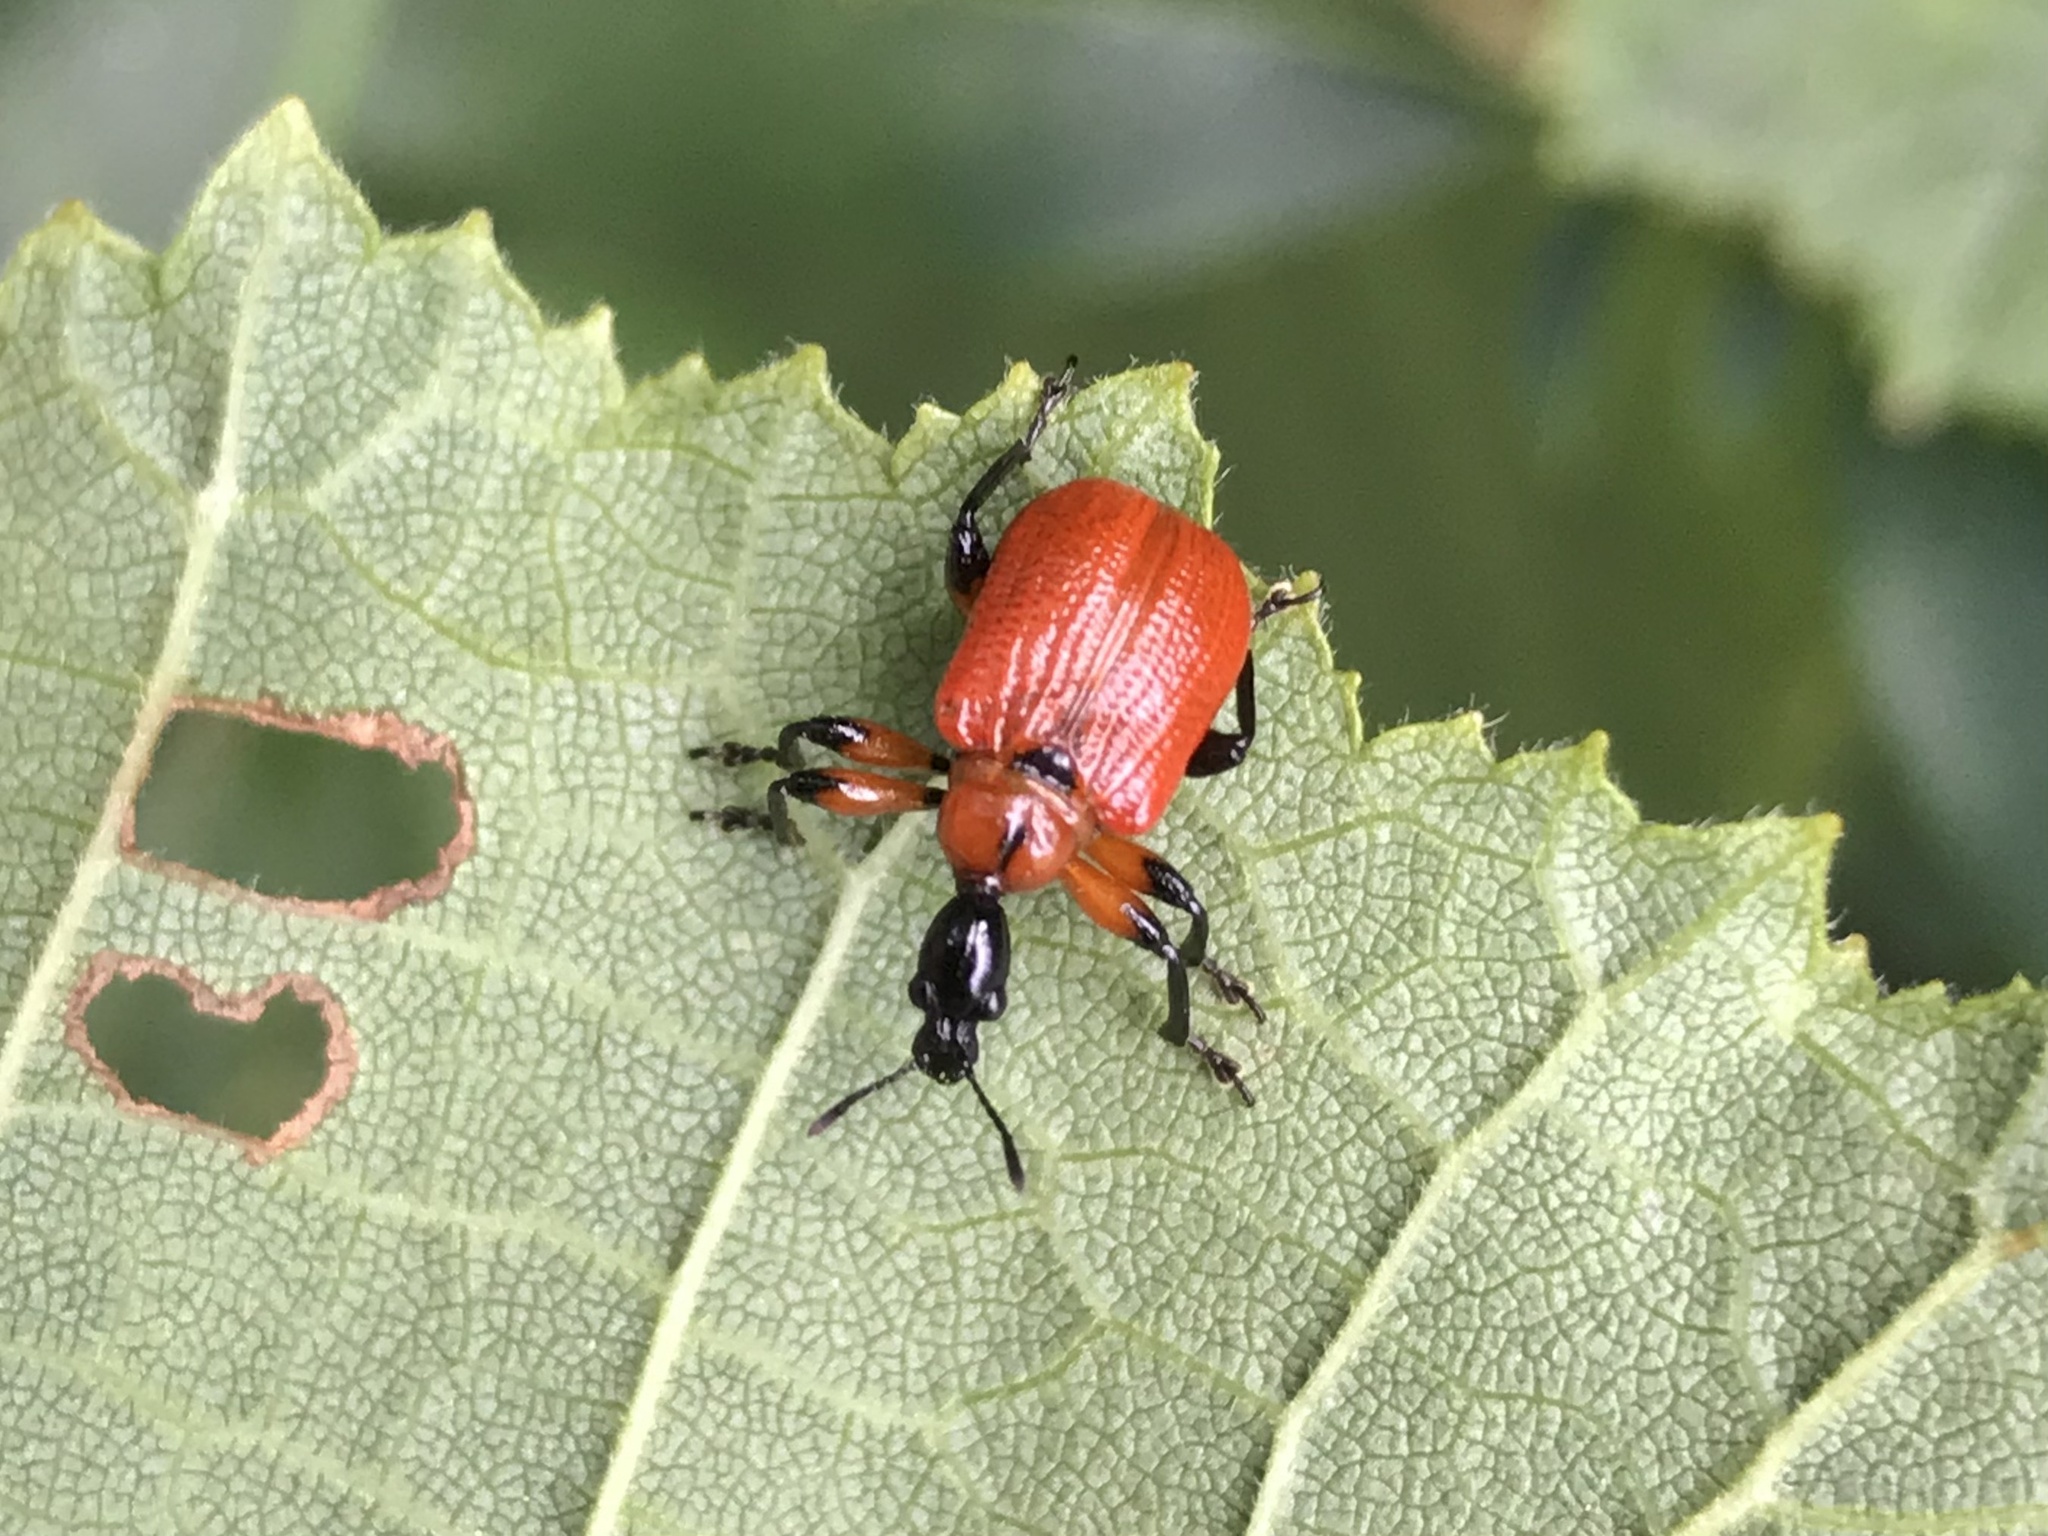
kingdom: Animalia
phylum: Arthropoda
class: Insecta
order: Coleoptera
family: Attelabidae
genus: Apoderus
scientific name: Apoderus coryli
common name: Hazel leaf roller
